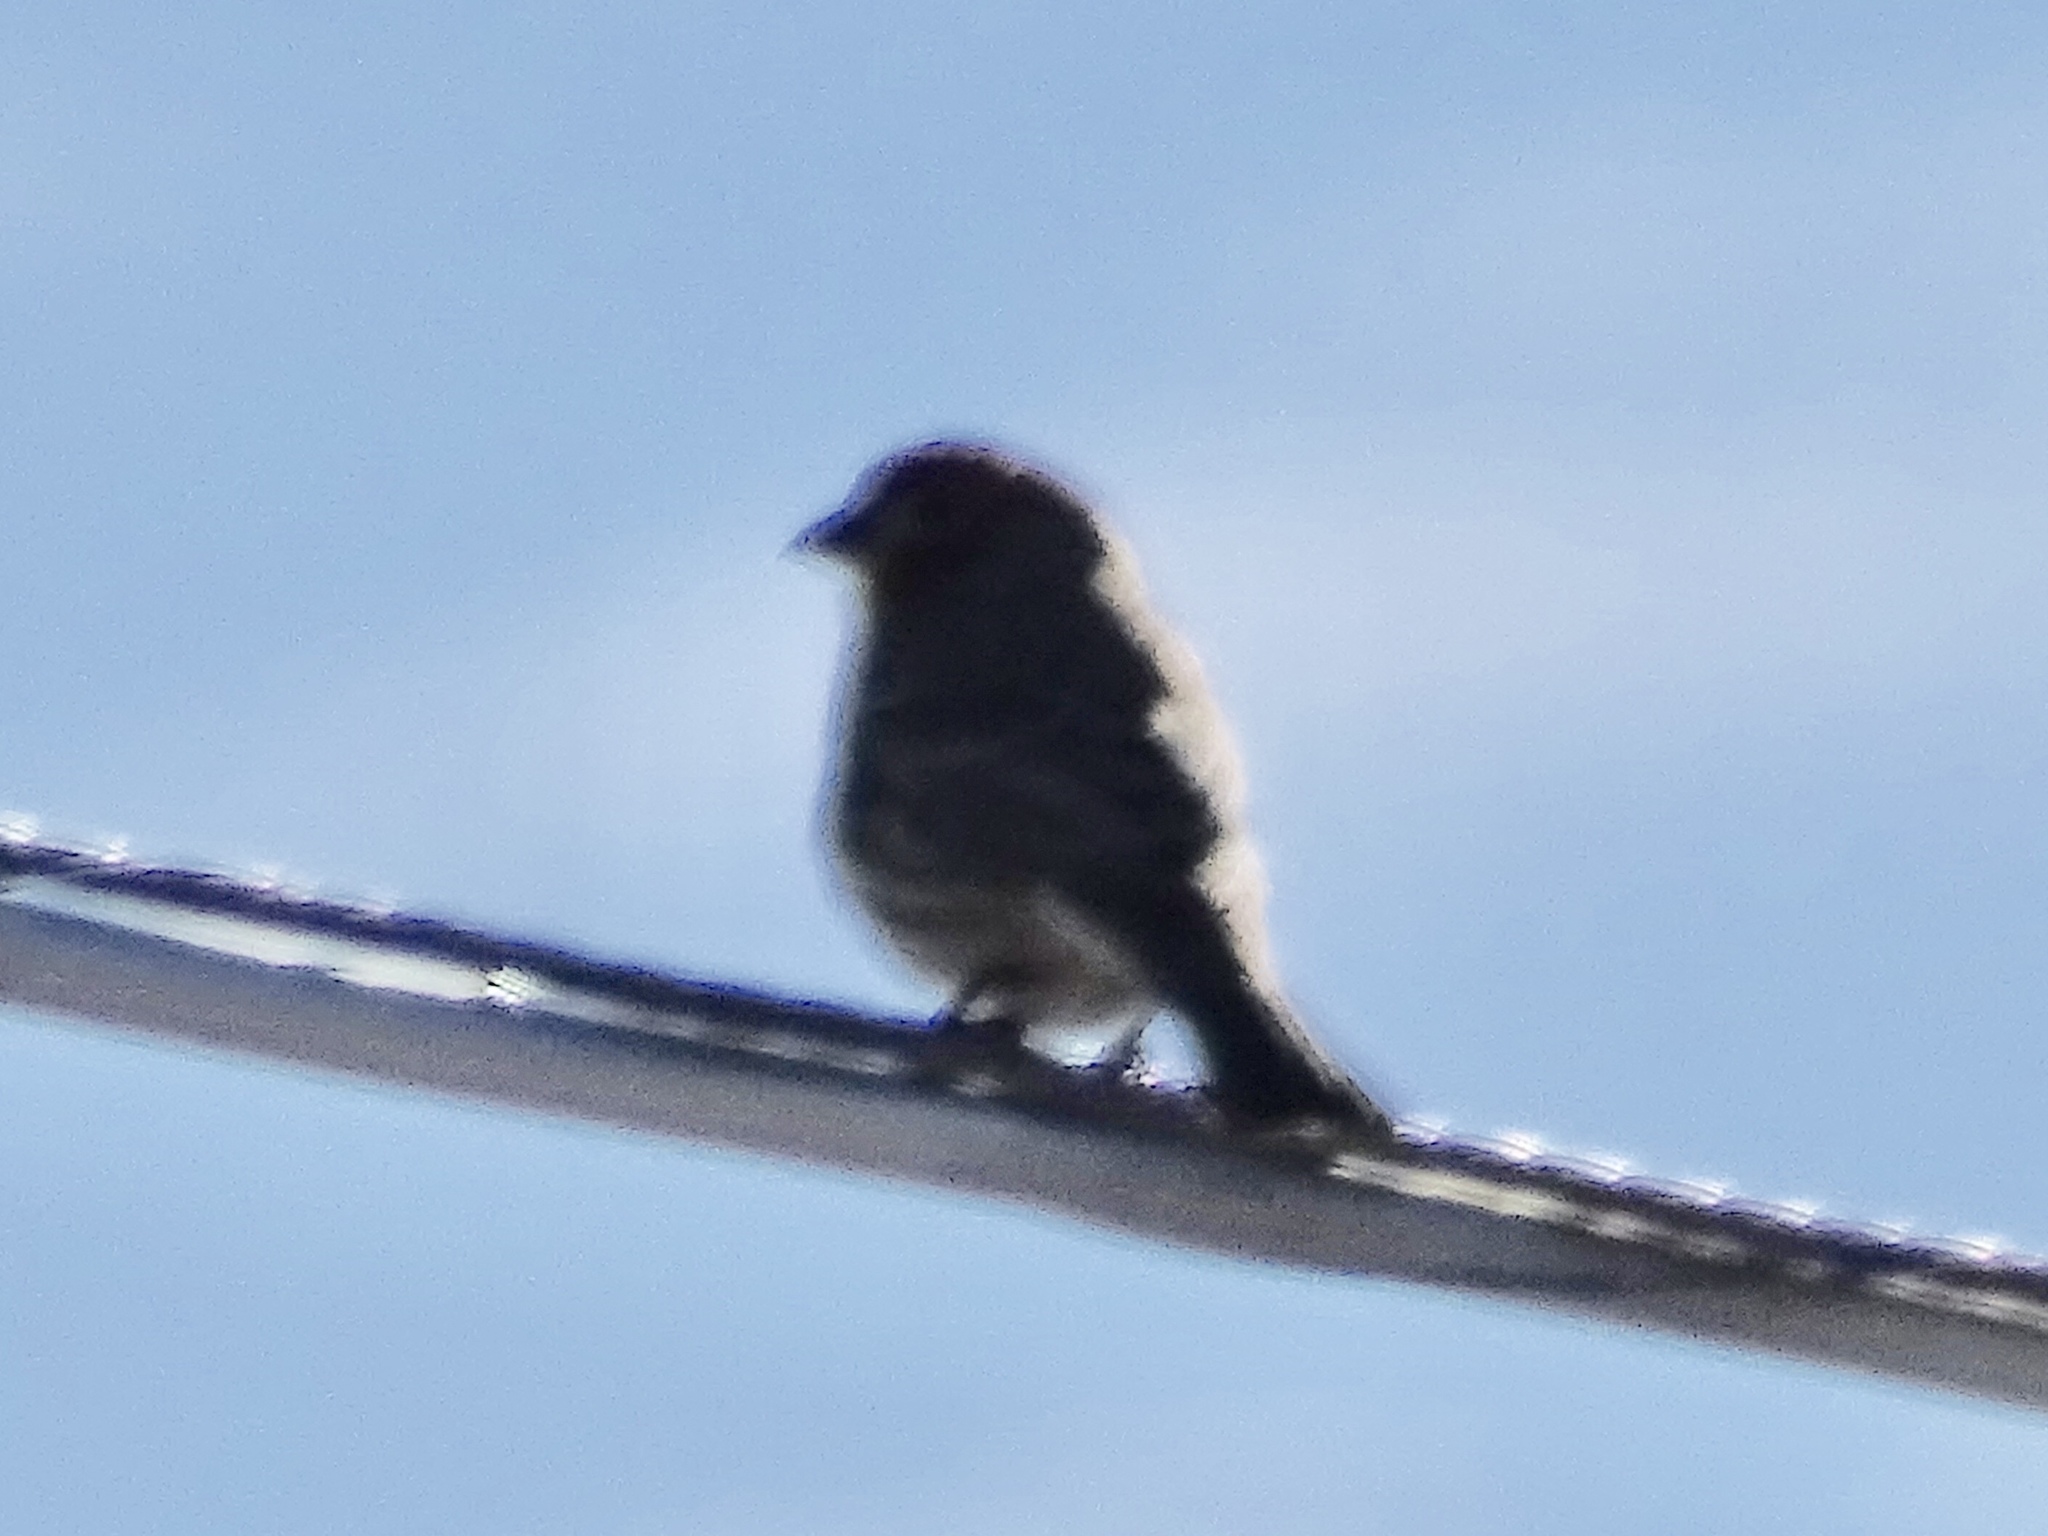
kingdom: Animalia
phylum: Chordata
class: Aves
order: Passeriformes
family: Fringillidae
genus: Haemorhous
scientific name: Haemorhous mexicanus
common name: House finch
